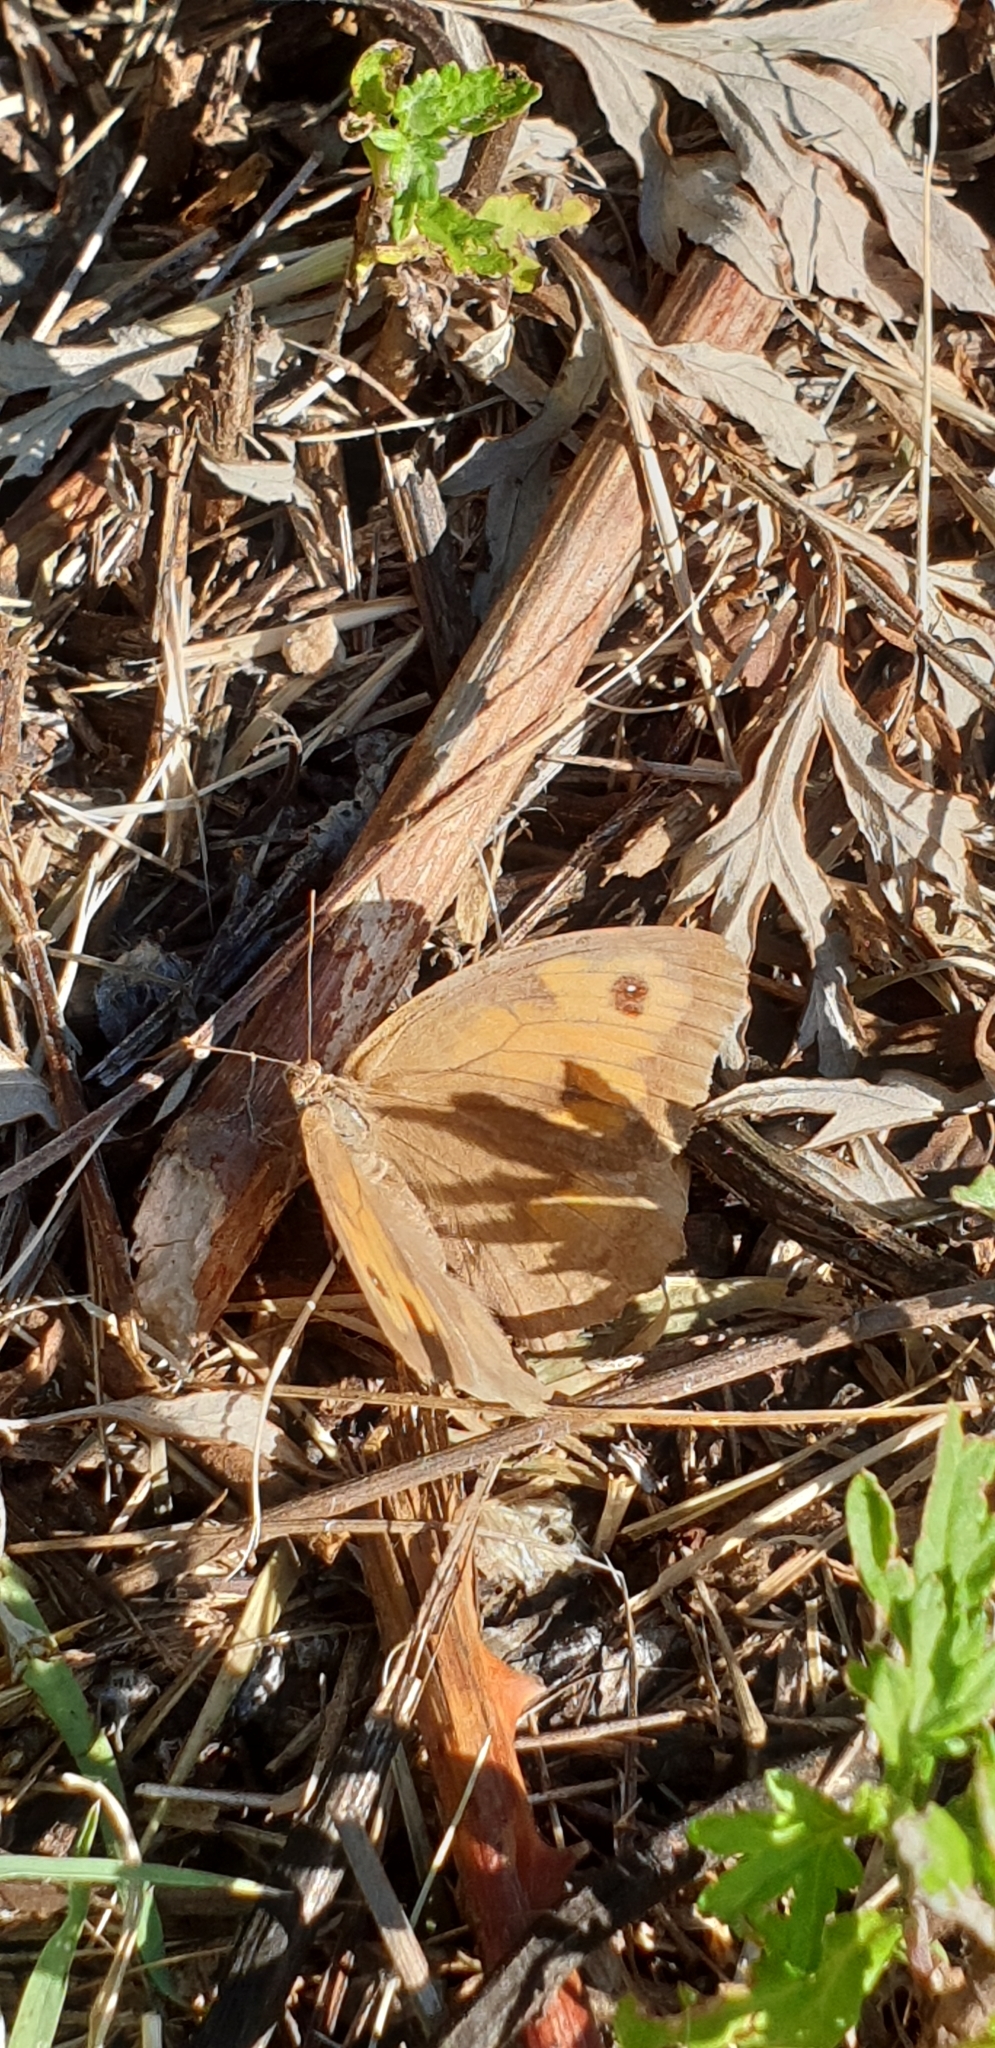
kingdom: Animalia
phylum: Arthropoda
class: Insecta
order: Lepidoptera
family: Nymphalidae
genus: Maniola
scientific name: Maniola jurtina
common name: Meadow brown
